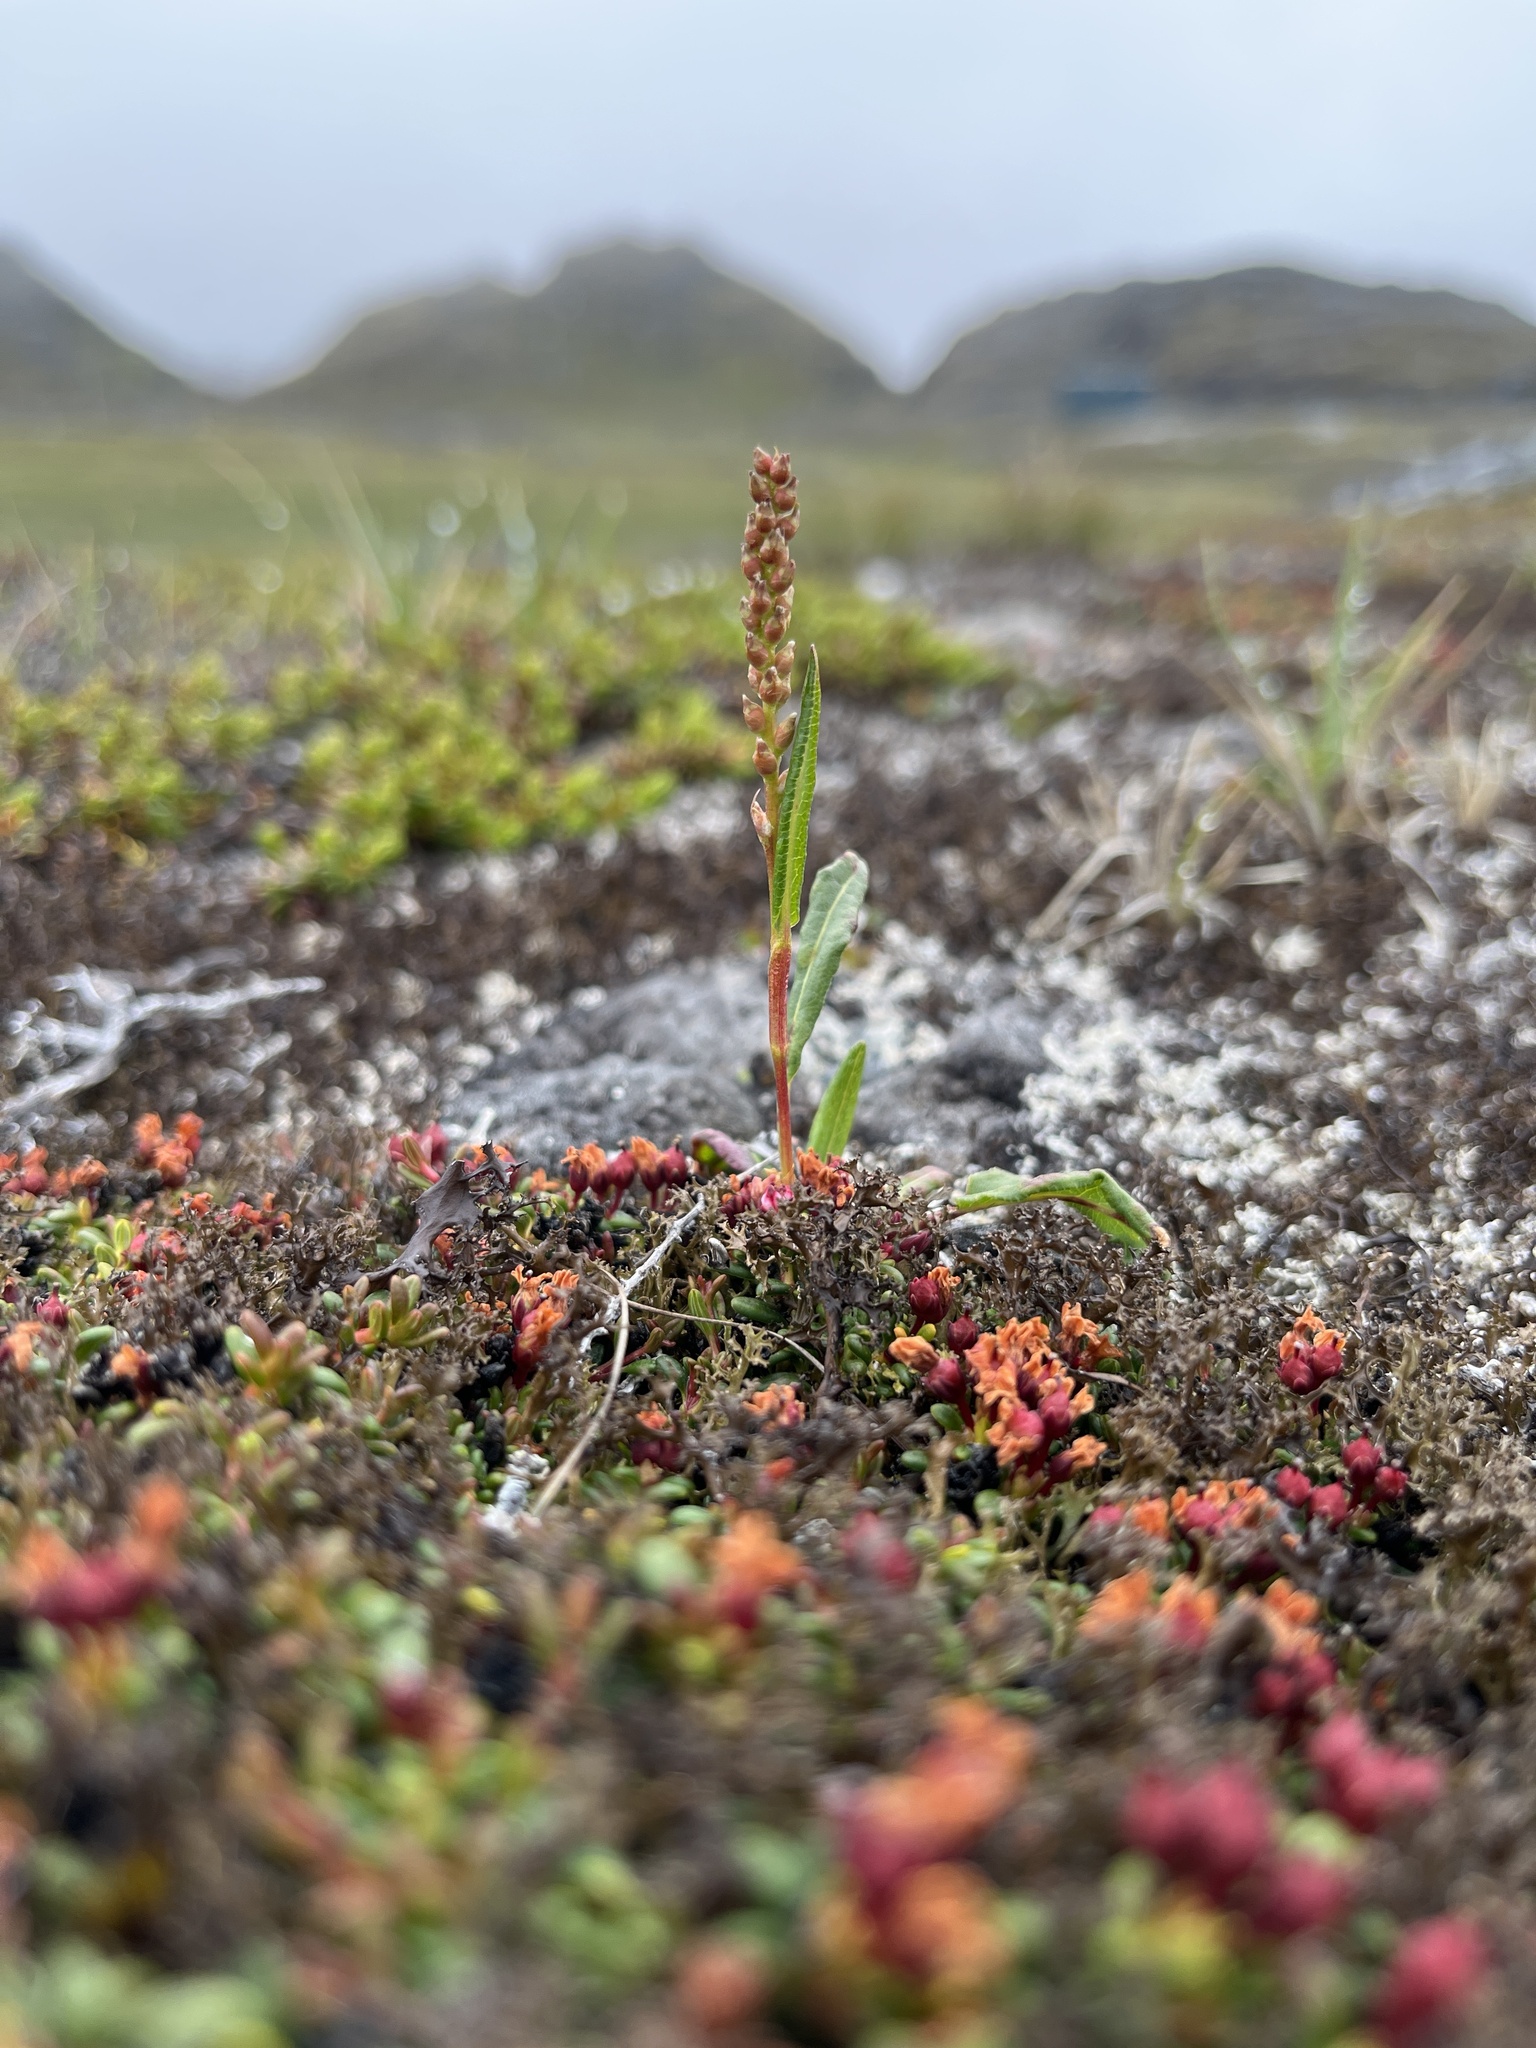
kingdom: Plantae
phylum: Tracheophyta
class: Magnoliopsida
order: Caryophyllales
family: Polygonaceae
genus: Bistorta
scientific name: Bistorta vivipara
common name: Alpine bistort
